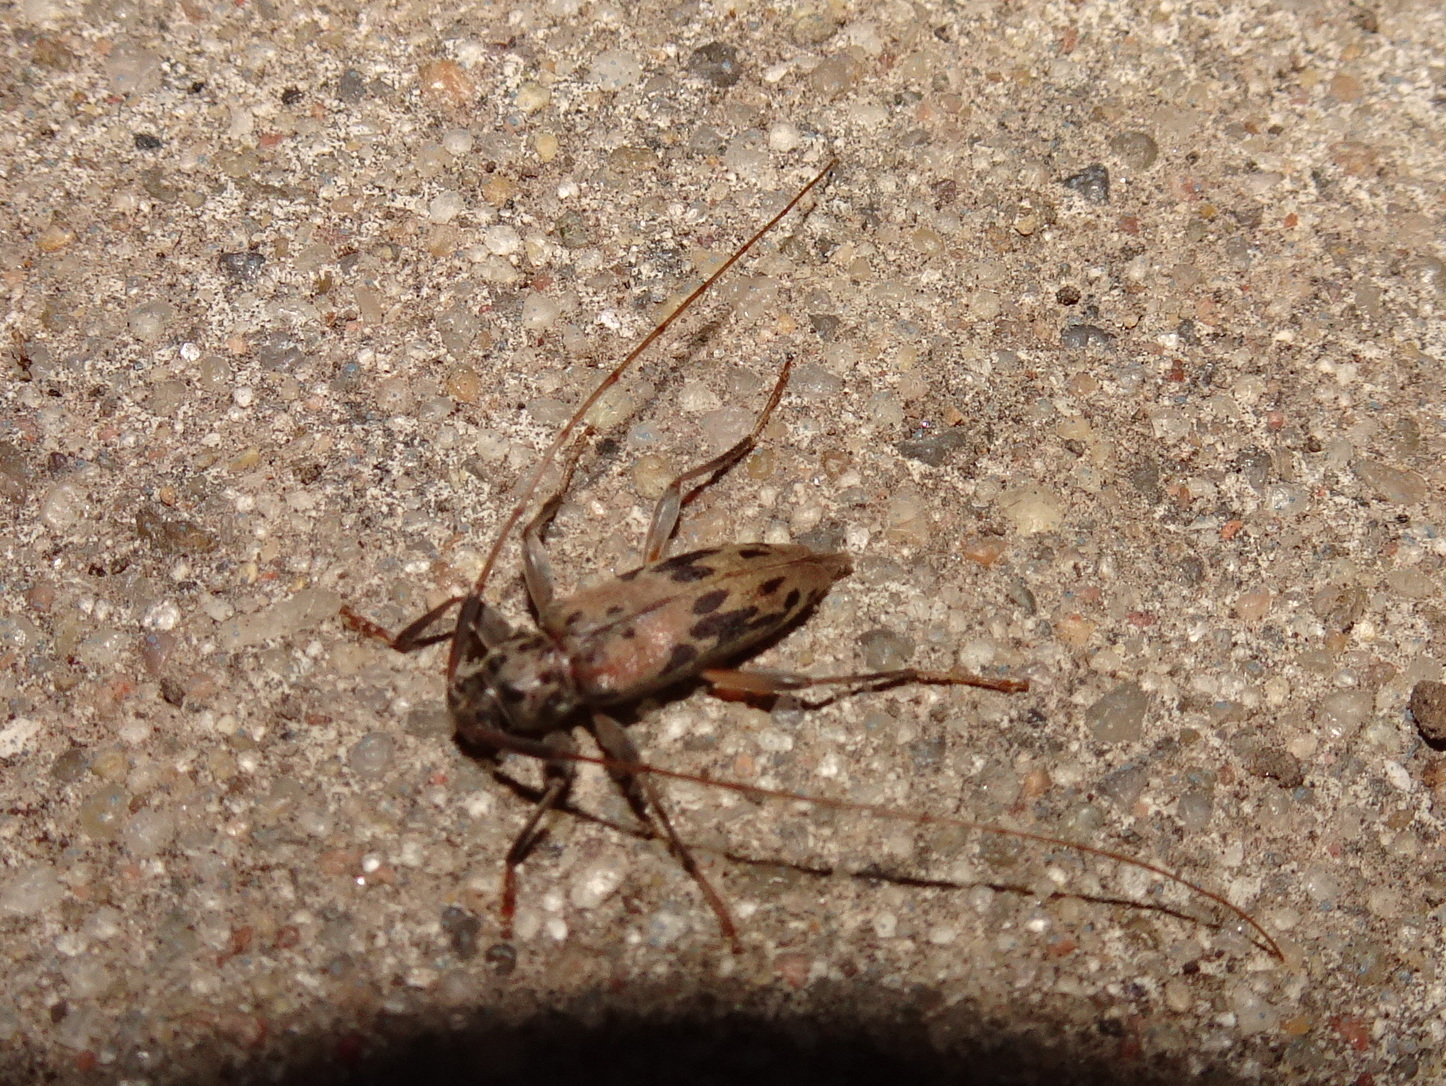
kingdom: Animalia
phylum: Arthropoda
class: Insecta
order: Coleoptera
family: Cerambycidae
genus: Lepturges
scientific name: Lepturges pictus
